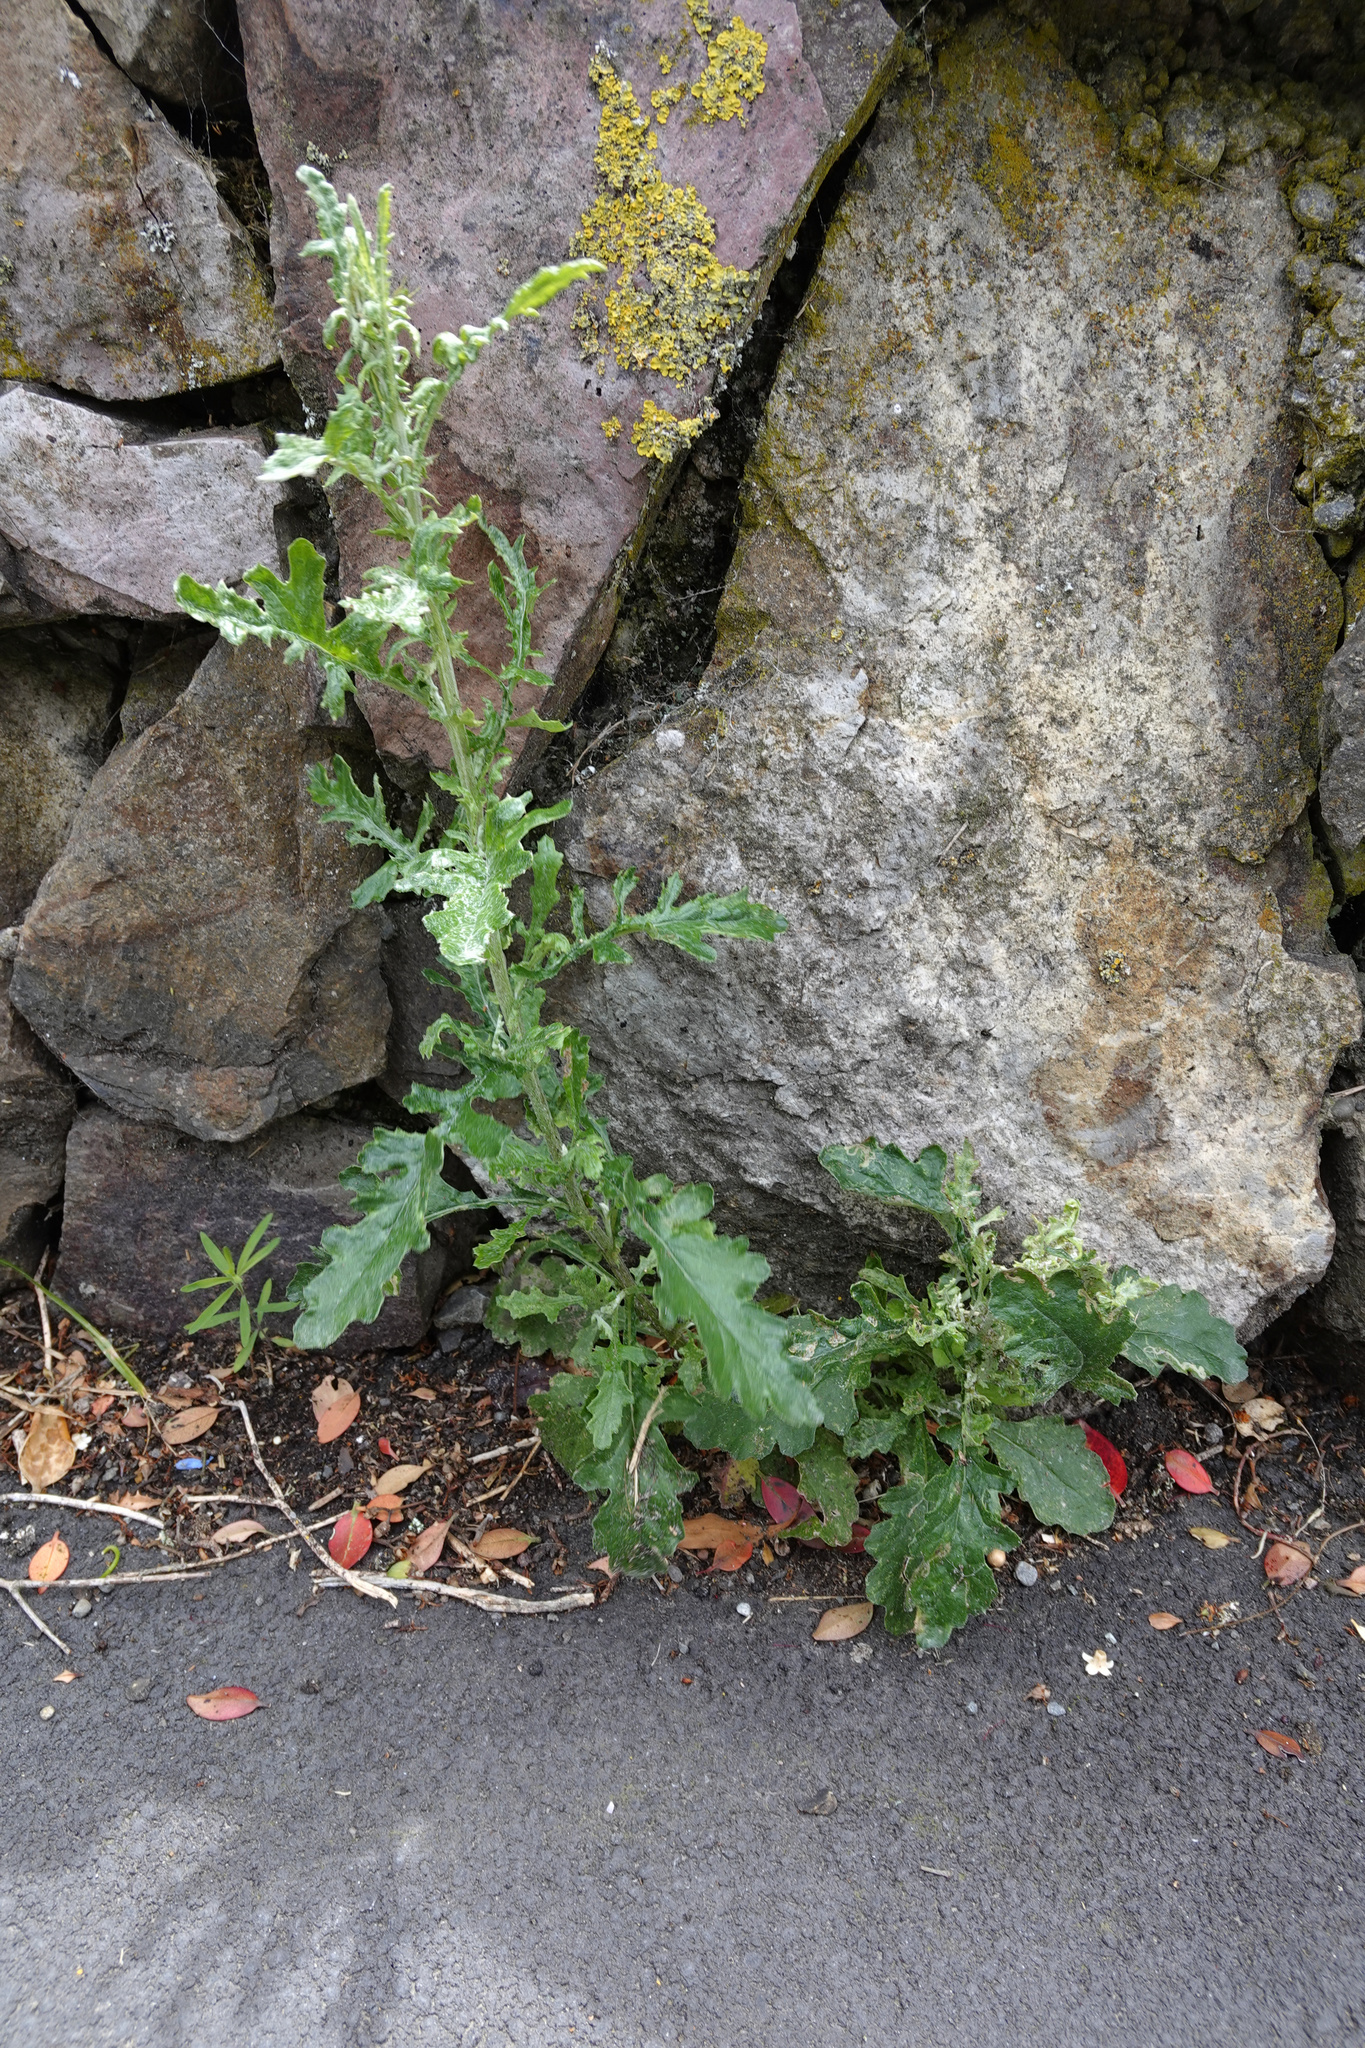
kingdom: Plantae
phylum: Tracheophyta
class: Magnoliopsida
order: Asterales
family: Asteraceae
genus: Senecio
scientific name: Senecio glomeratus
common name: Cutleaf burnweed
